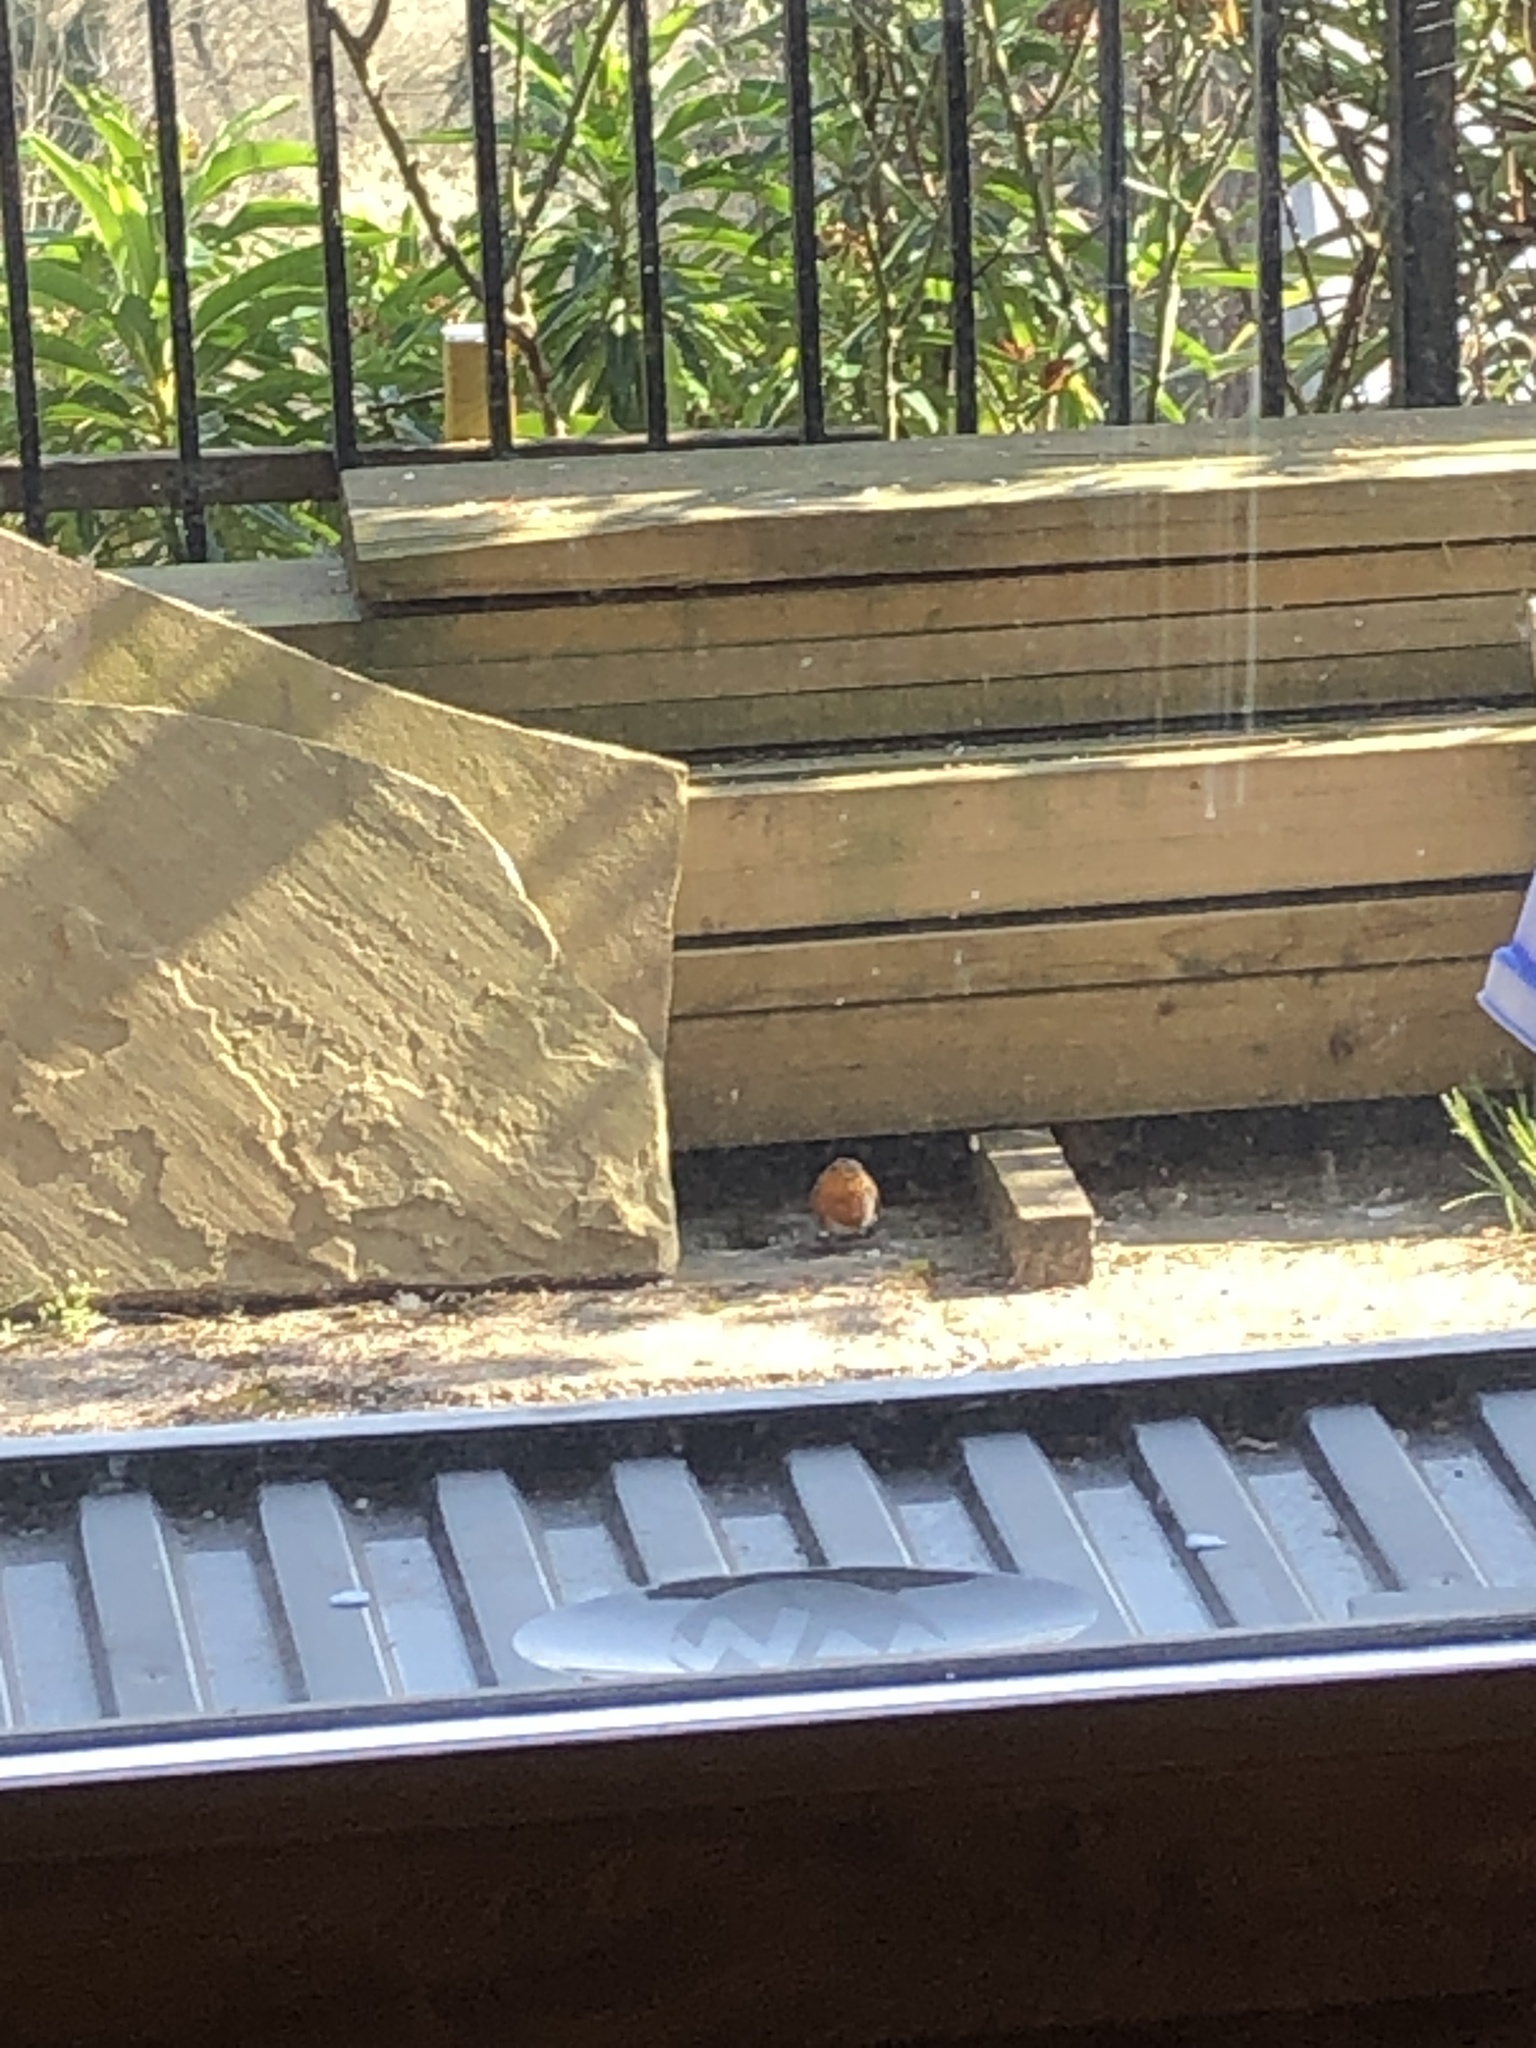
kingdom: Animalia
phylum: Chordata
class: Aves
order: Passeriformes
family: Muscicapidae
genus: Erithacus
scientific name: Erithacus rubecula
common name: European robin
